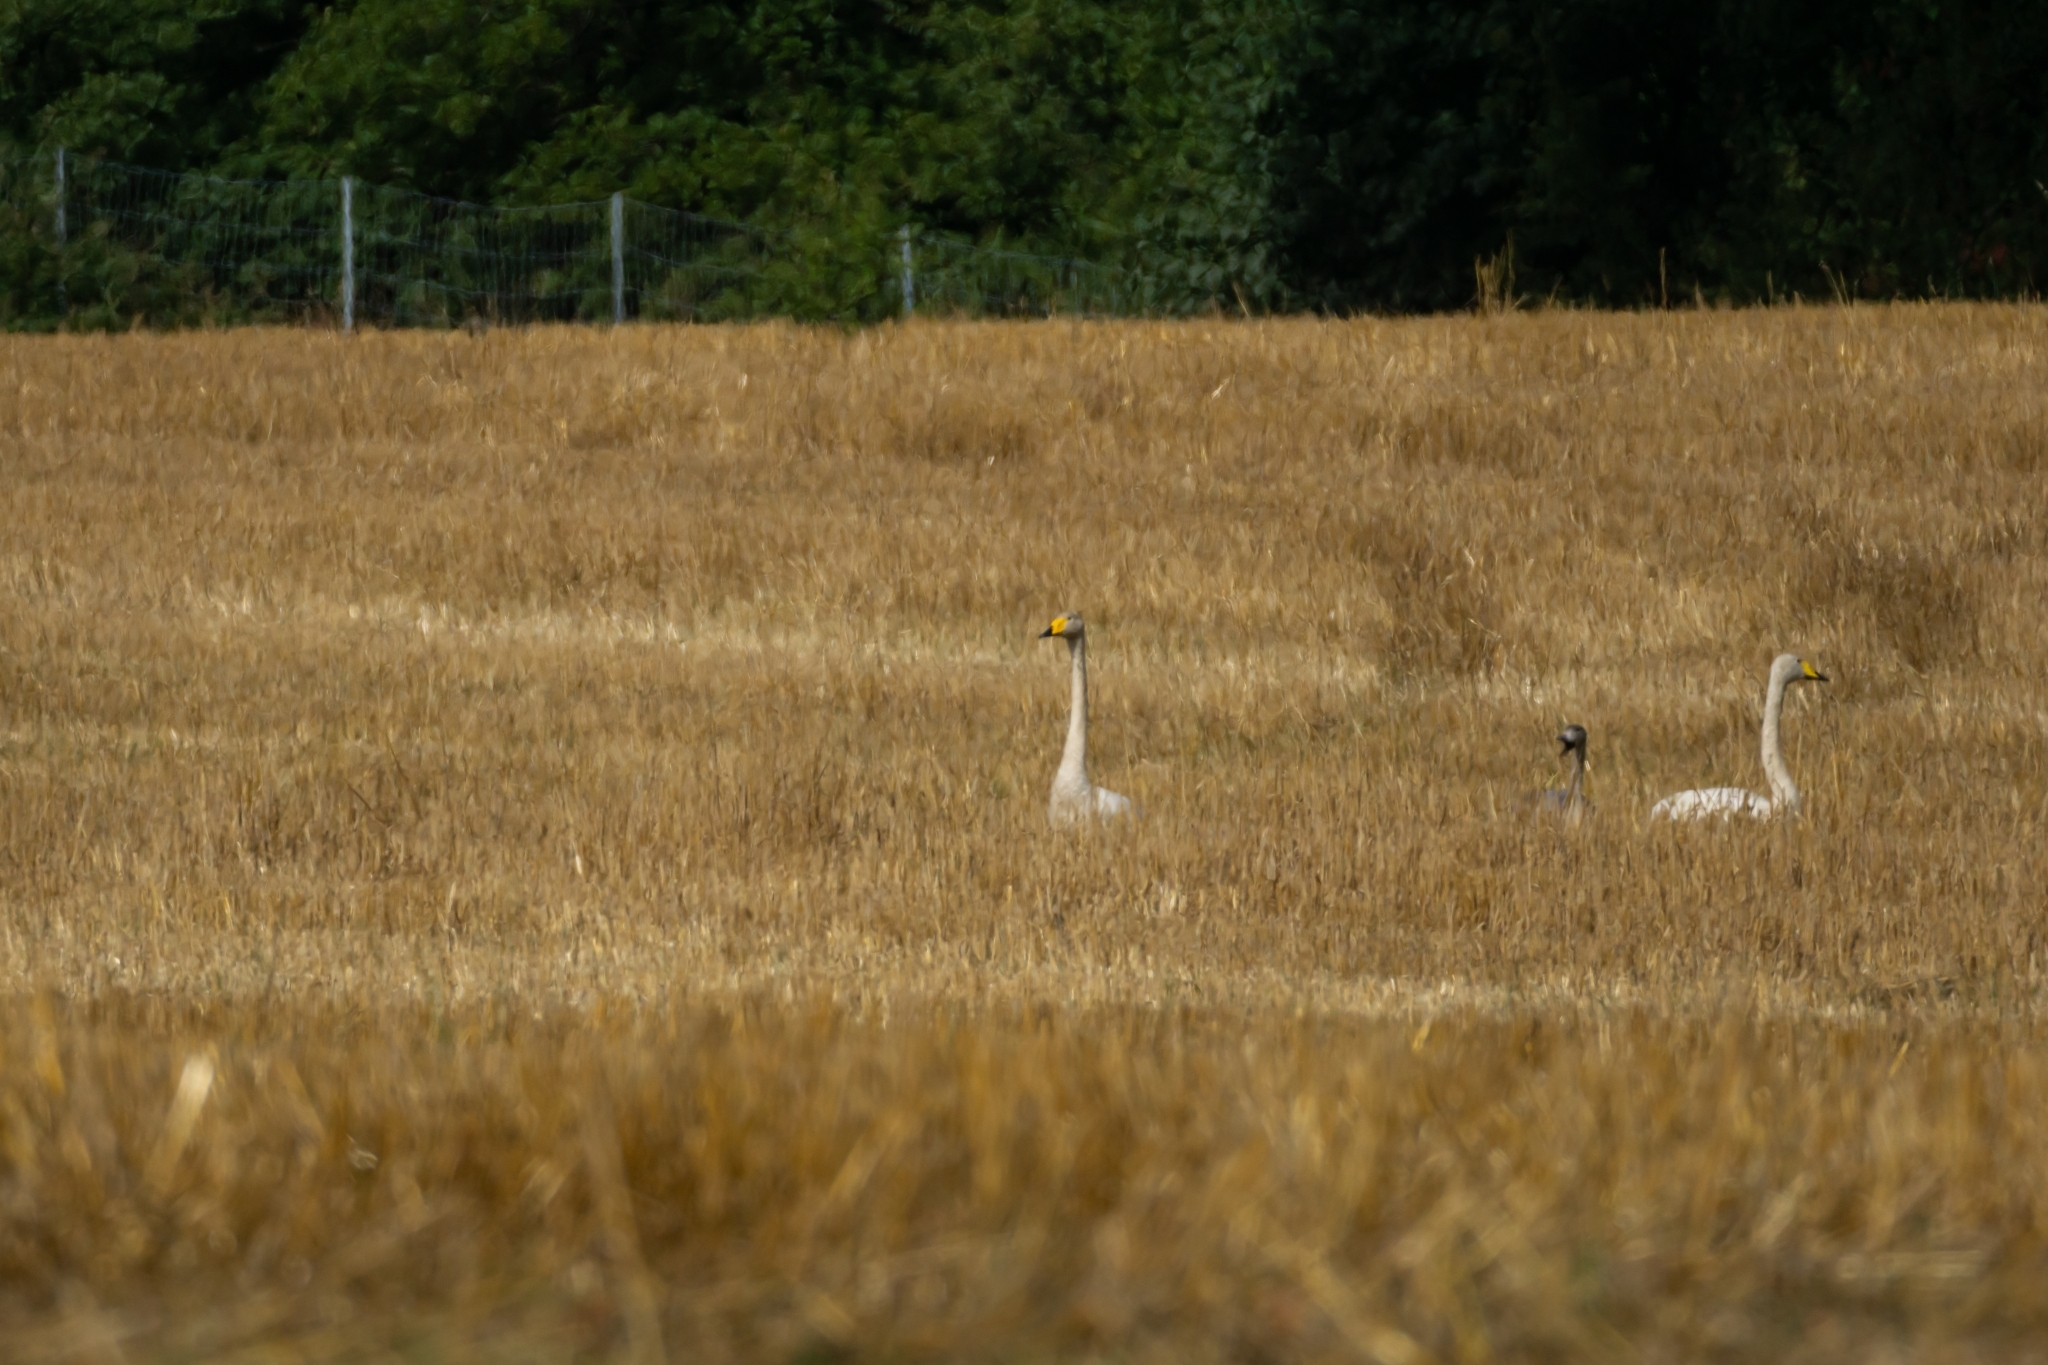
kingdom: Animalia
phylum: Chordata
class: Aves
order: Anseriformes
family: Anatidae
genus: Cygnus
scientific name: Cygnus cygnus
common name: Whooper swan
